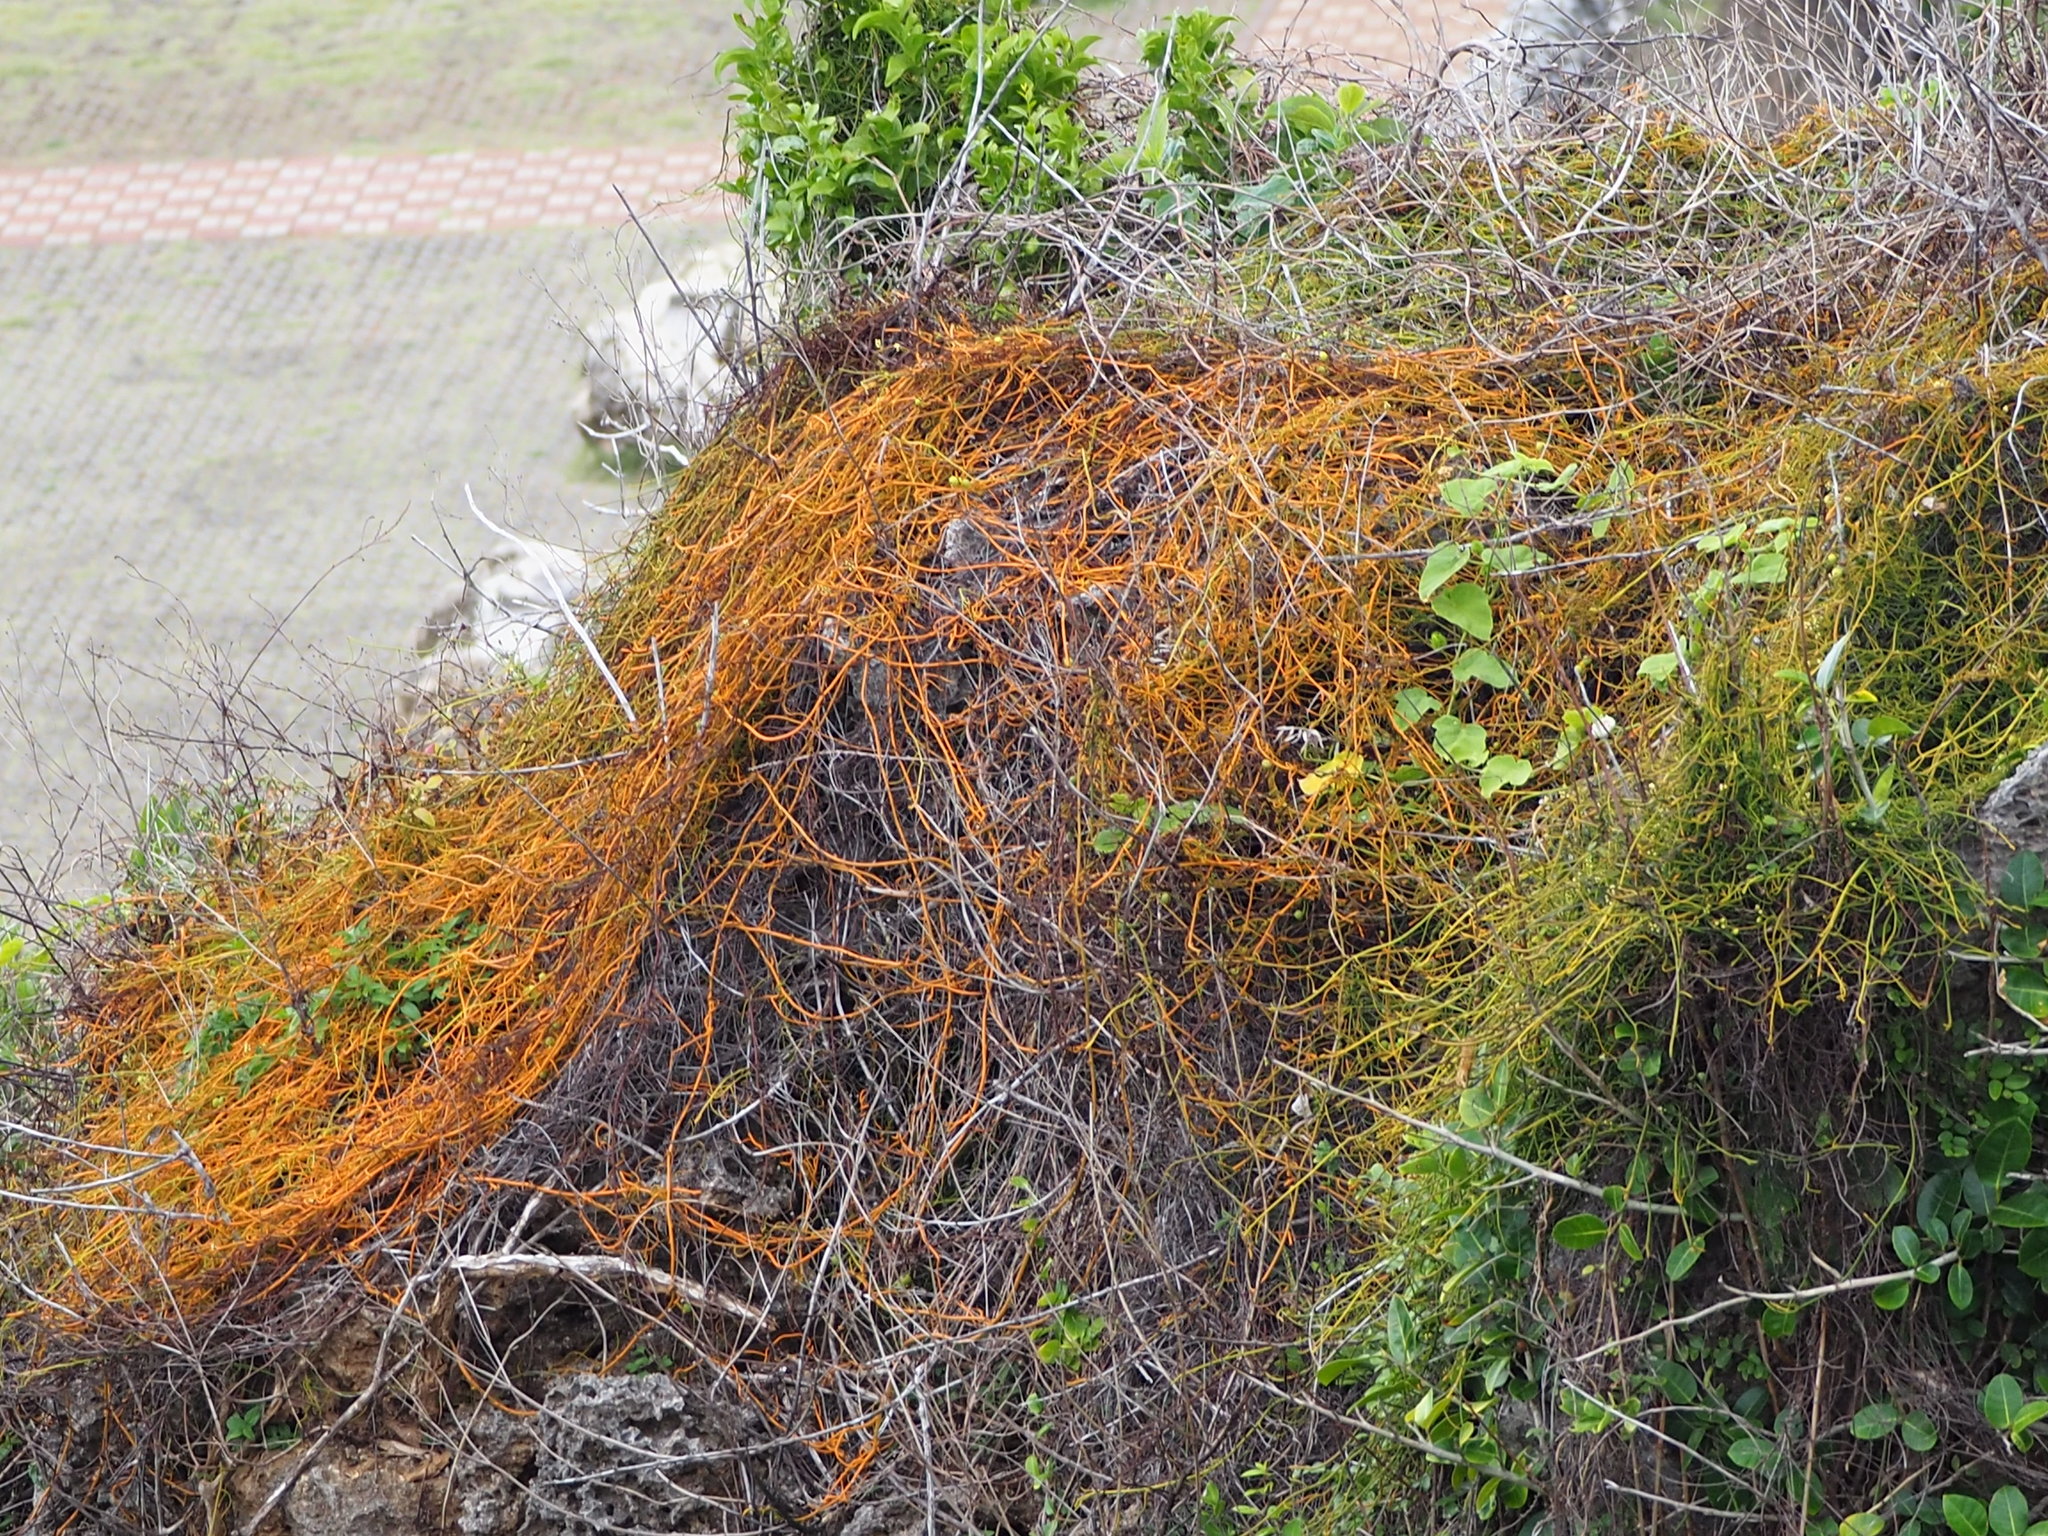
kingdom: Plantae
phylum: Tracheophyta
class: Magnoliopsida
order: Laurales
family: Lauraceae
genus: Cassytha
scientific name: Cassytha filiformis
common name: Dodder-laurel
